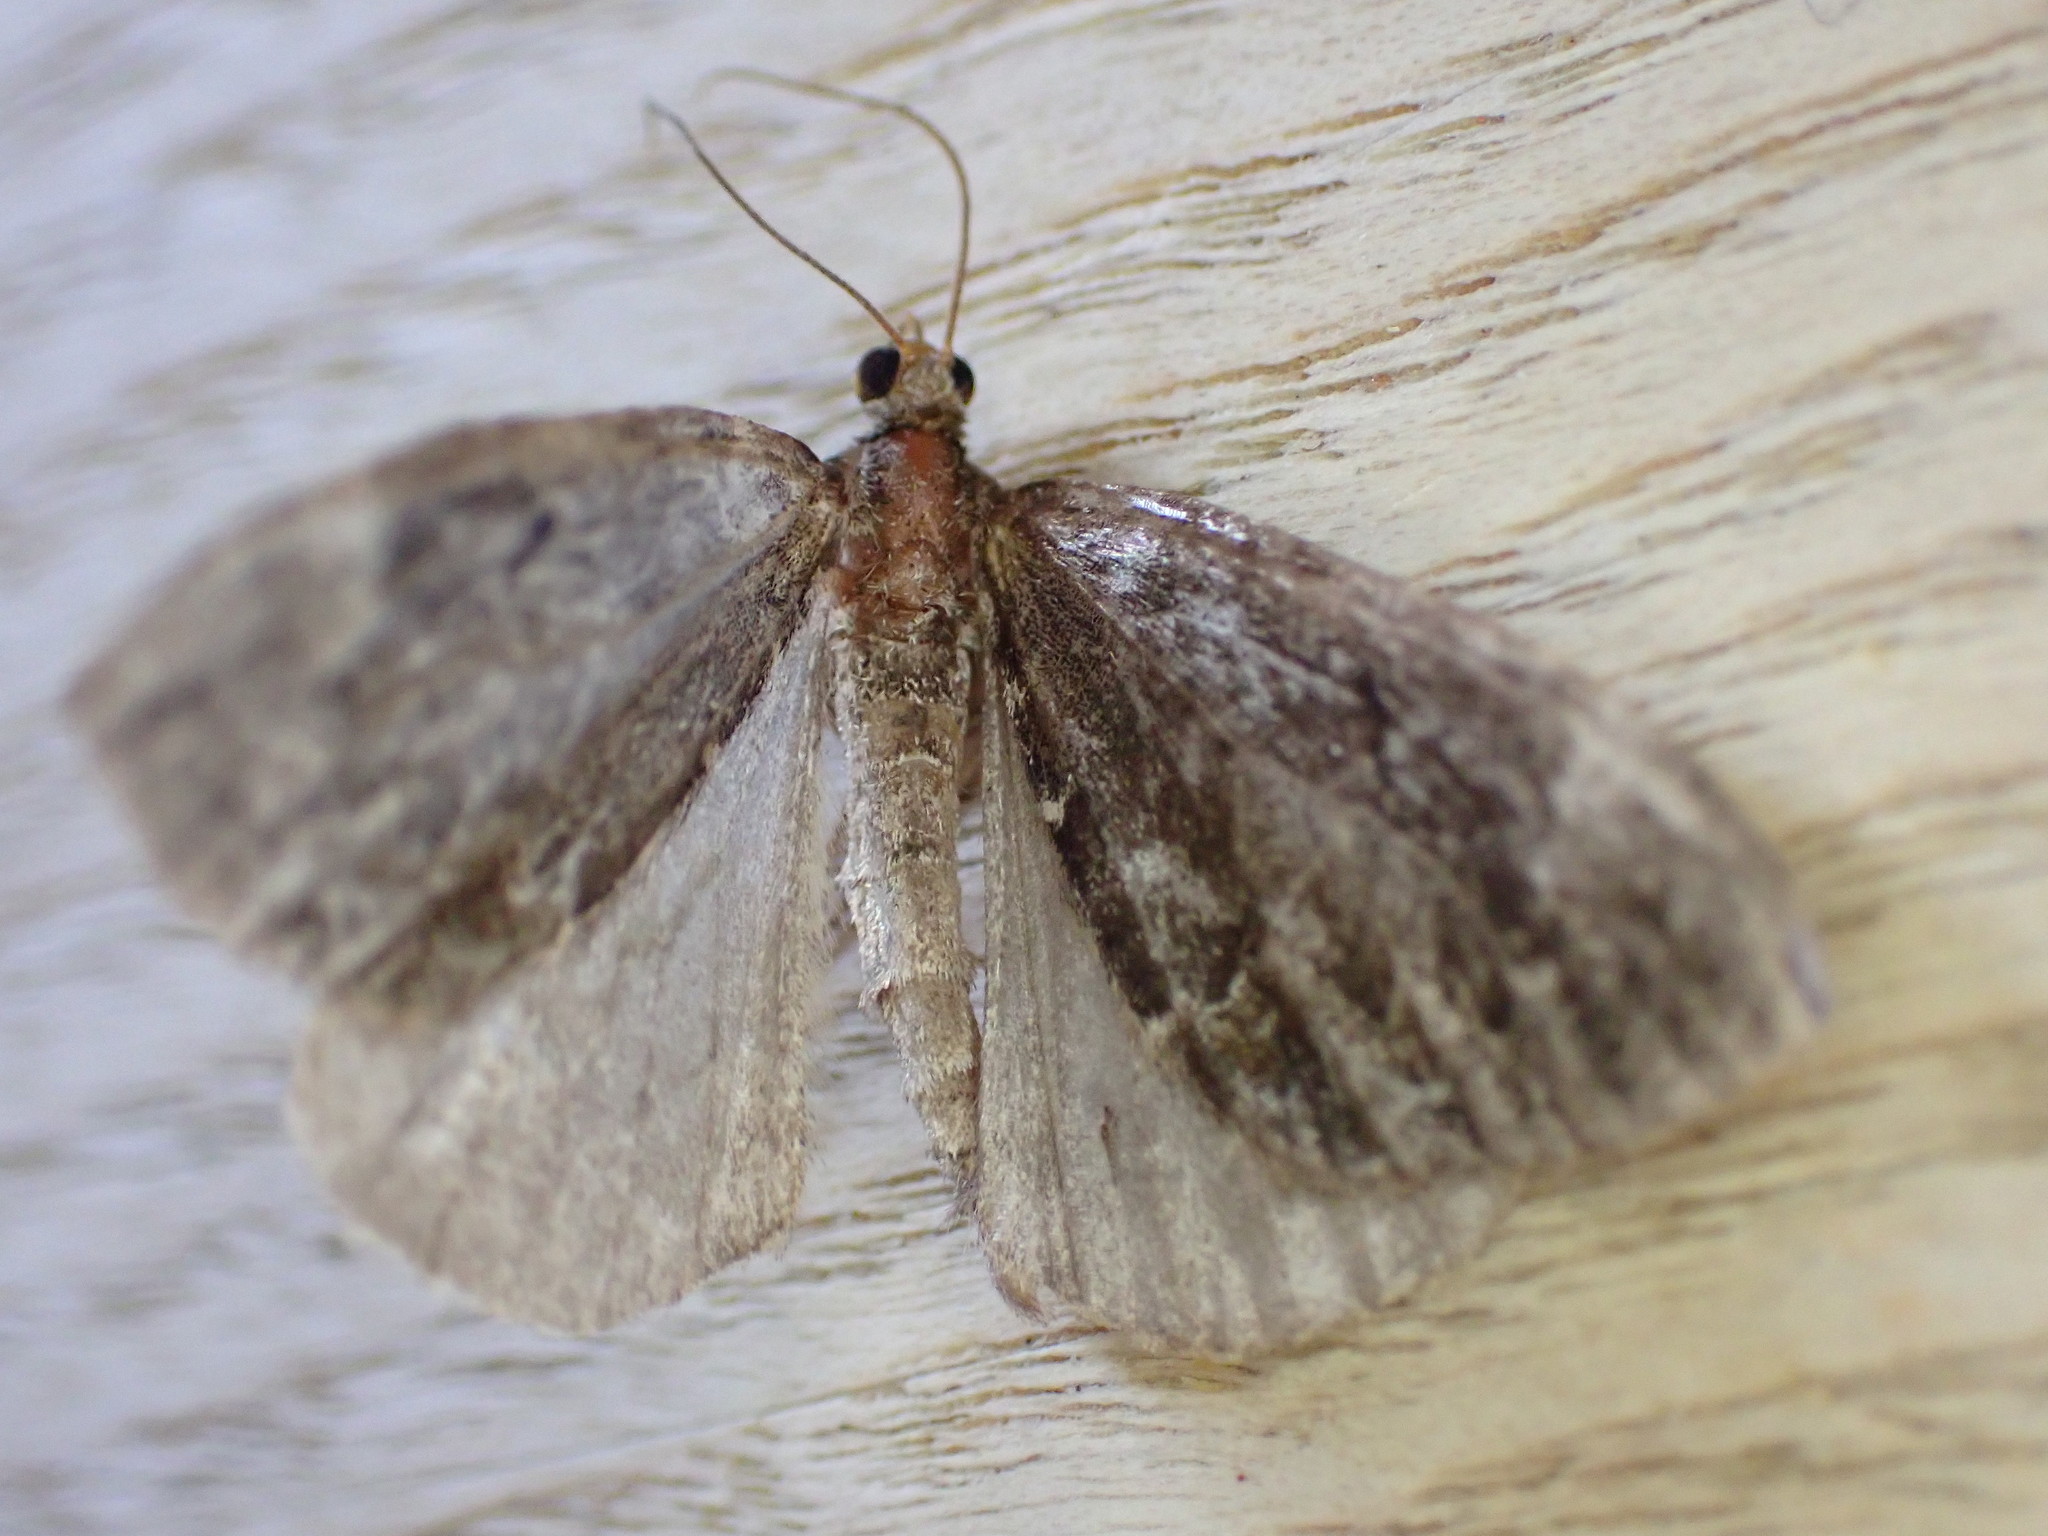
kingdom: Animalia
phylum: Arthropoda
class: Insecta
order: Lepidoptera
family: Geometridae
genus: Dysstroma
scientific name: Dysstroma truncata
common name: Common marbled carpet
